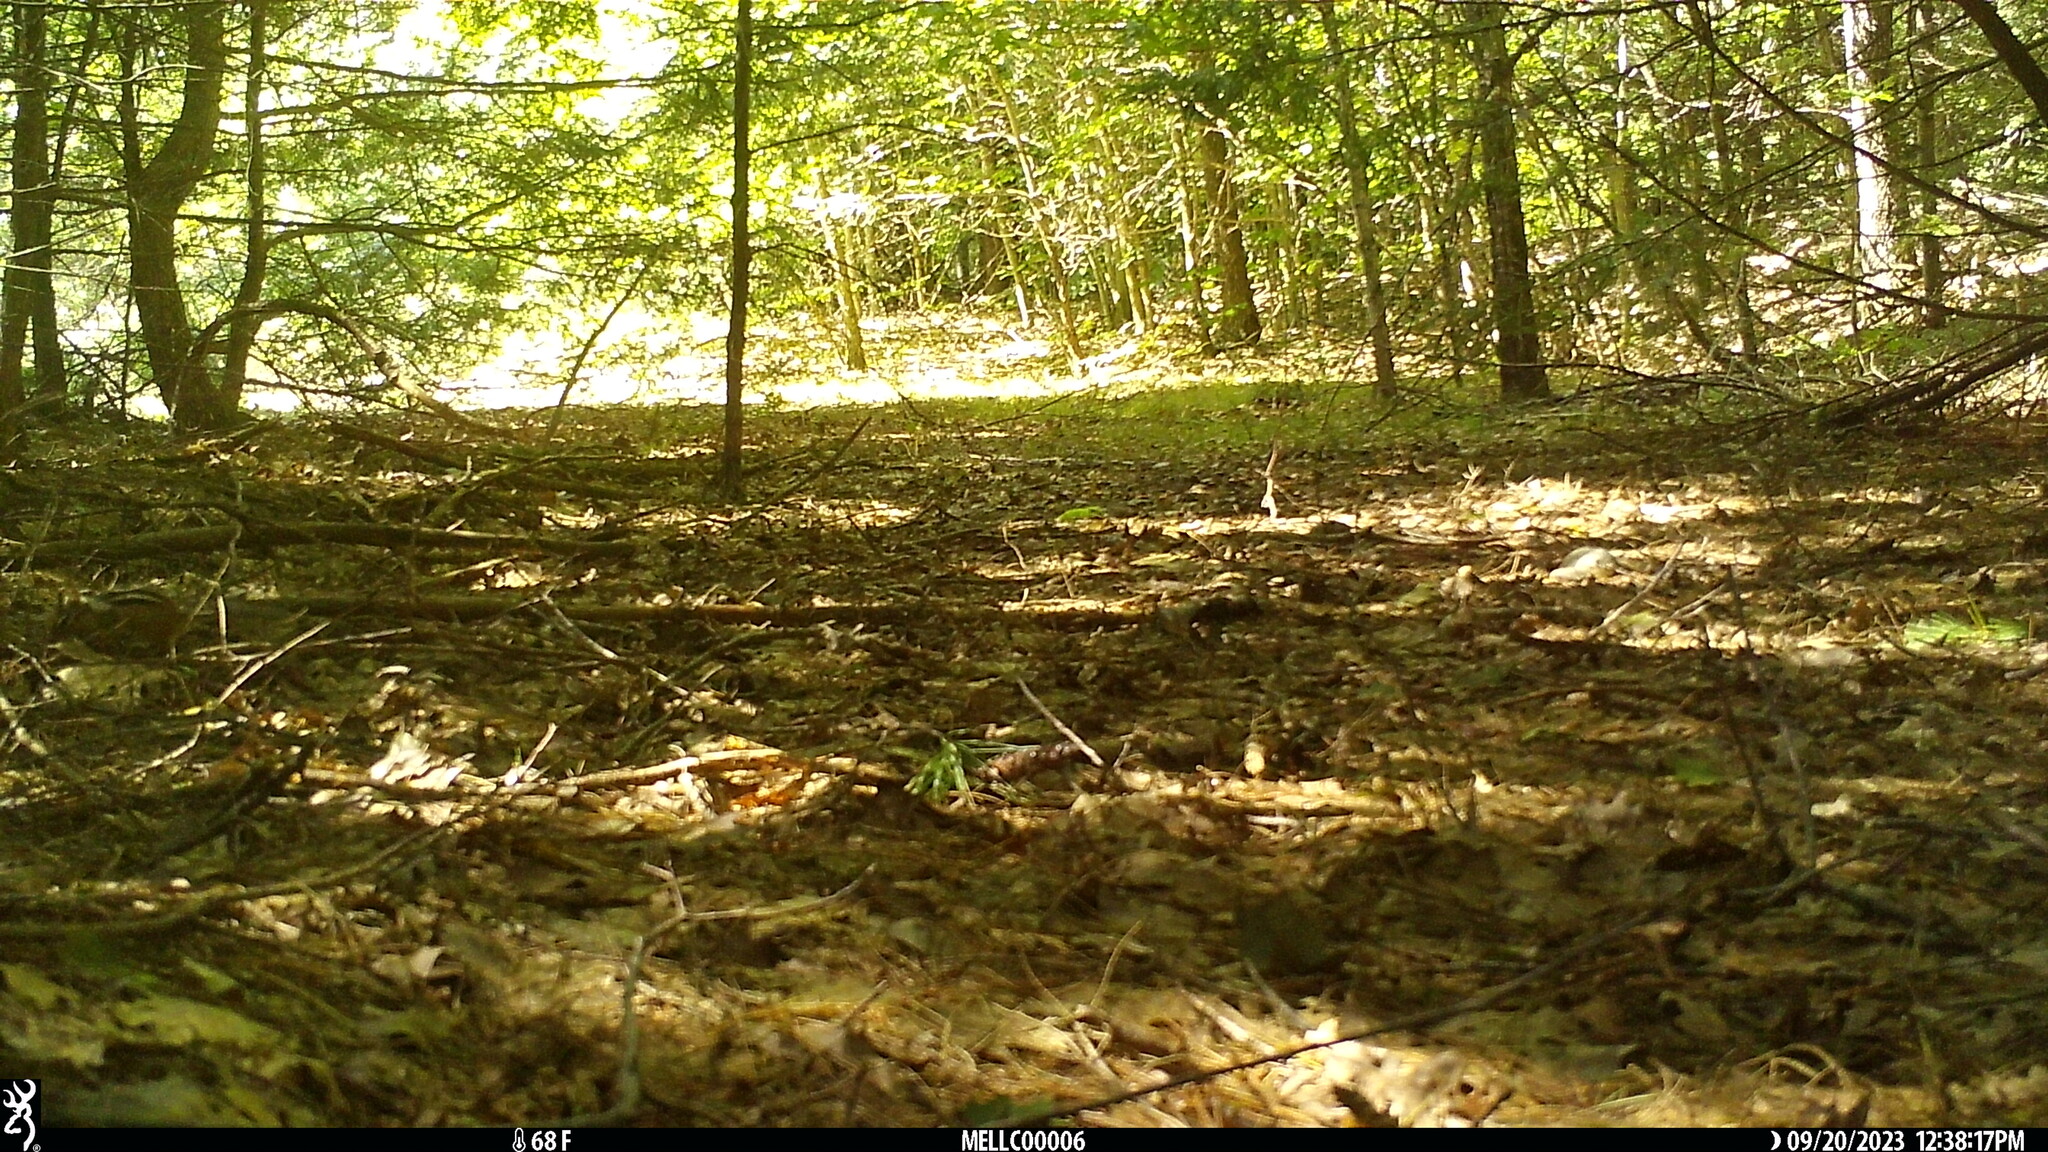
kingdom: Animalia
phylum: Chordata
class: Mammalia
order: Rodentia
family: Sciuridae
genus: Tamias
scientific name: Tamias striatus
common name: Eastern chipmunk
